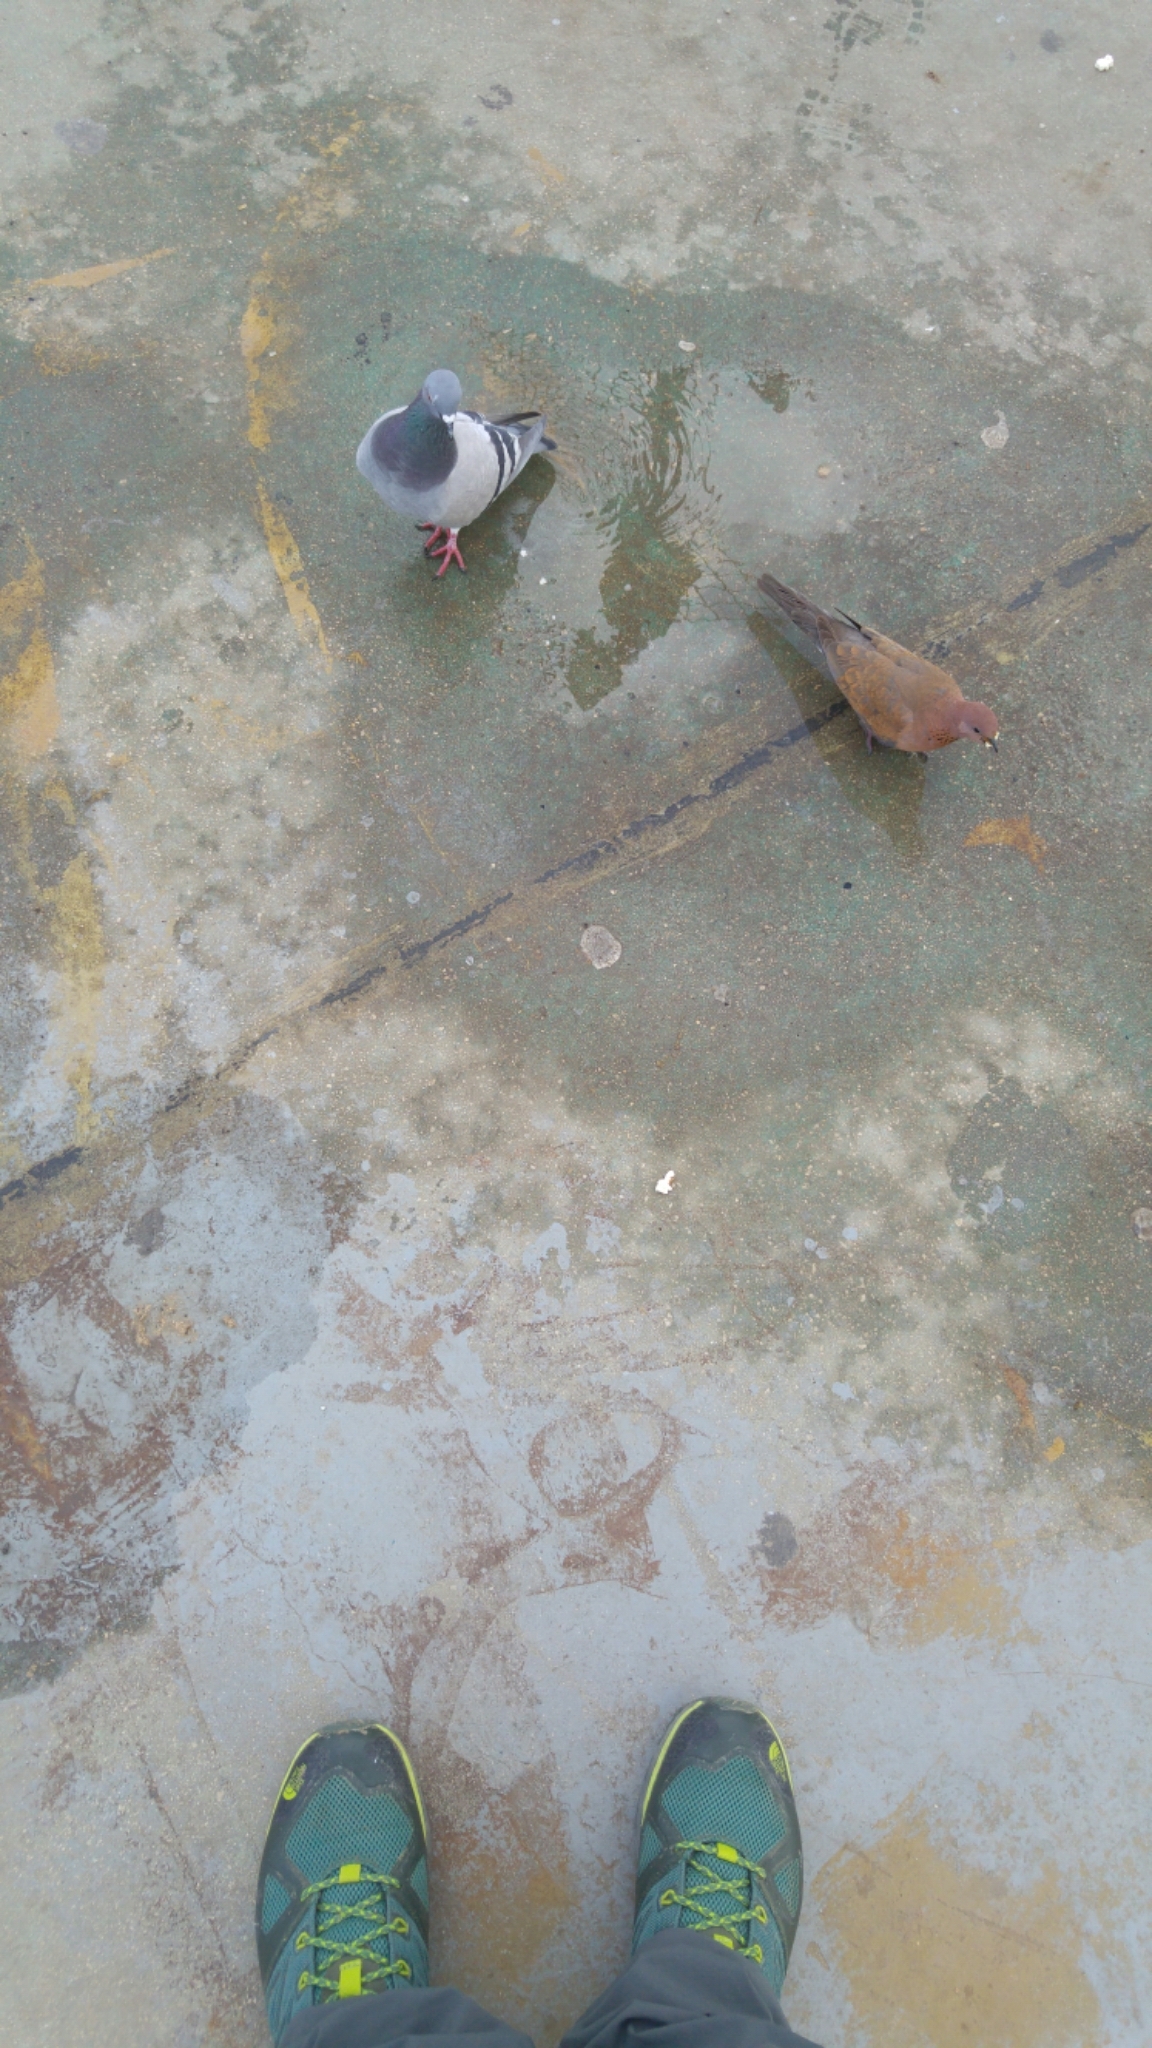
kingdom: Animalia
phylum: Chordata
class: Aves
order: Columbiformes
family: Columbidae
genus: Spilopelia
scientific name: Spilopelia senegalensis
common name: Laughing dove
